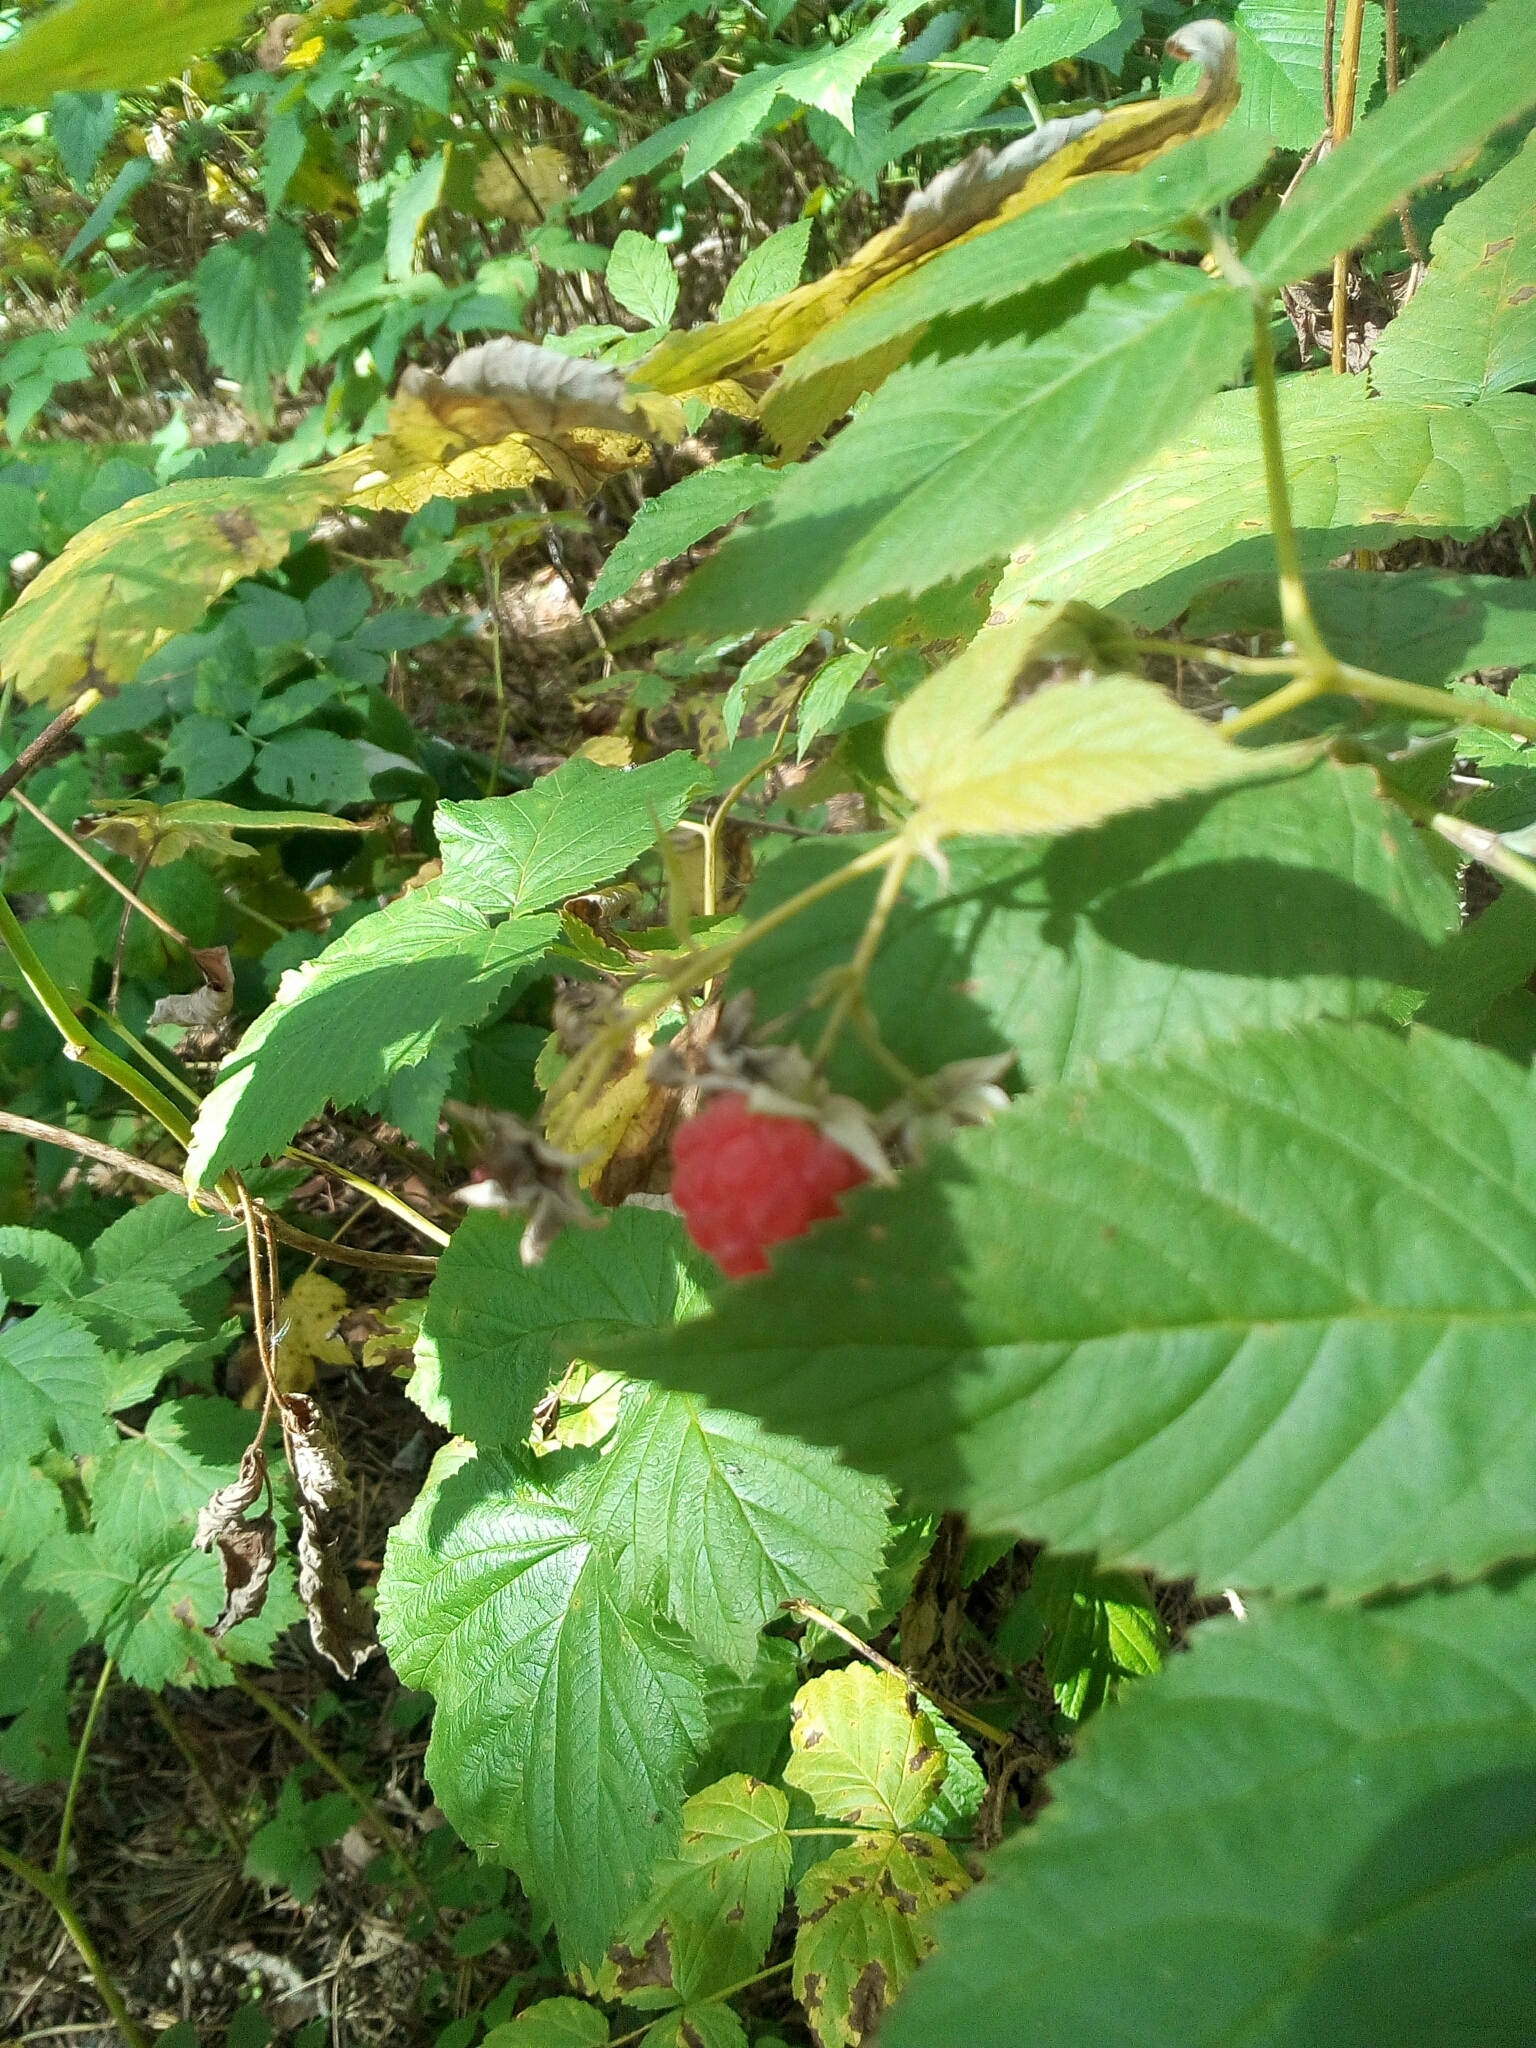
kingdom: Plantae
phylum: Tracheophyta
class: Magnoliopsida
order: Rosales
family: Rosaceae
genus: Rubus
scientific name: Rubus idaeus
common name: Raspberry
